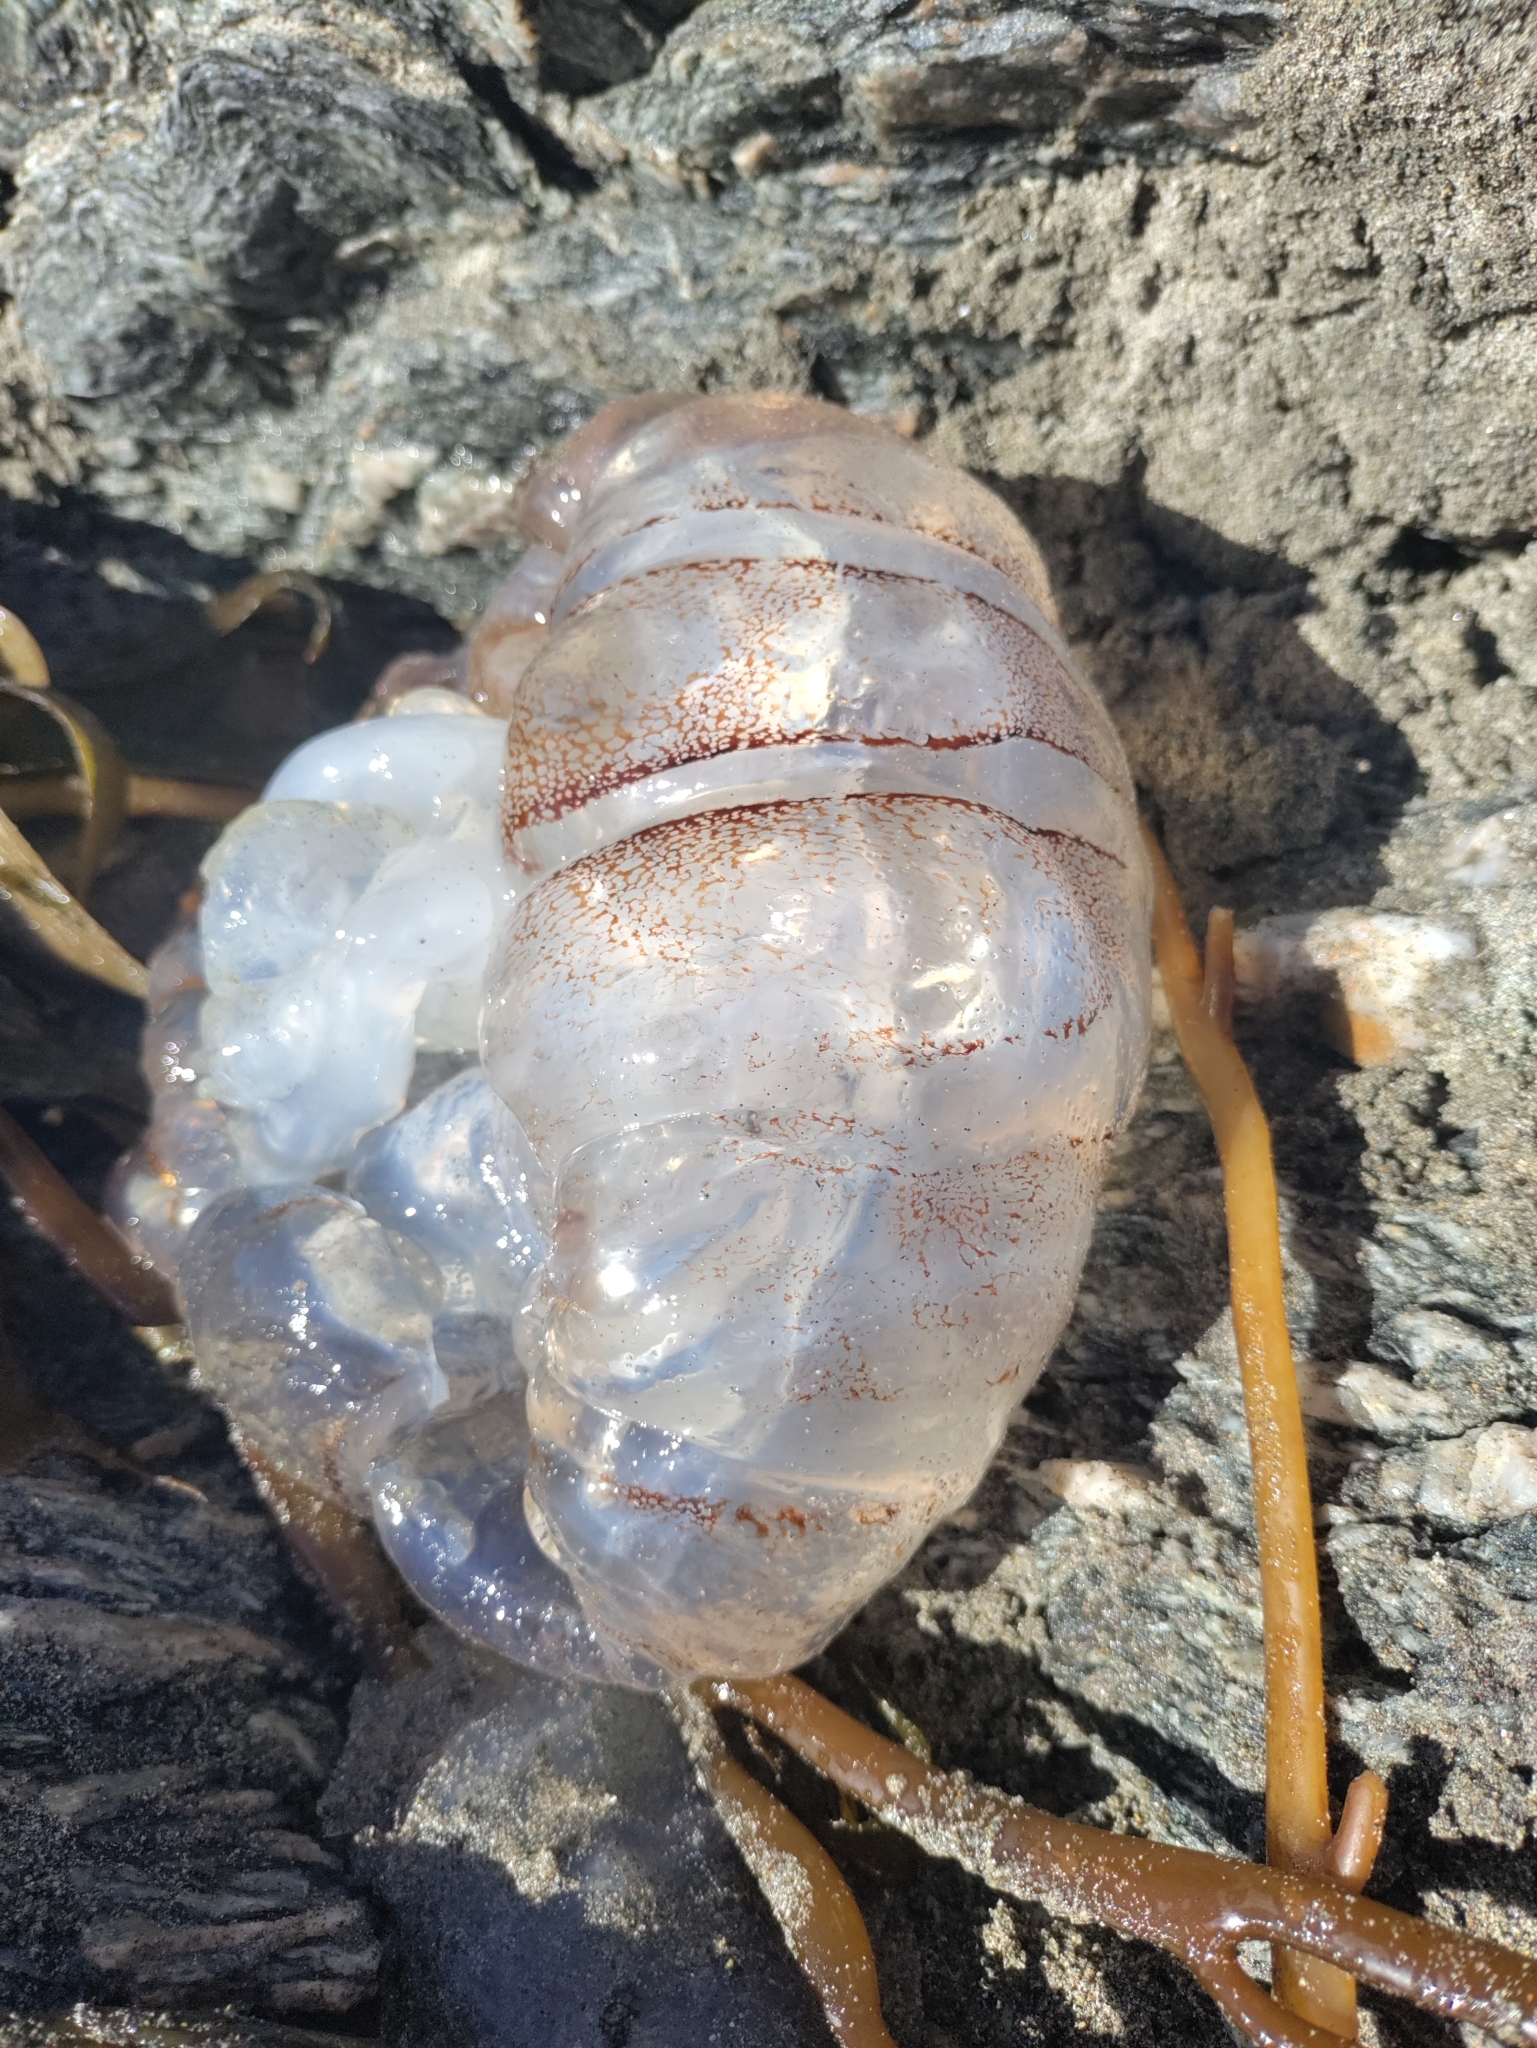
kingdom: Animalia
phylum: Cnidaria
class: Scyphozoa
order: Semaeostomeae
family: Pelagiidae
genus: Chrysaora
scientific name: Chrysaora plocamia
